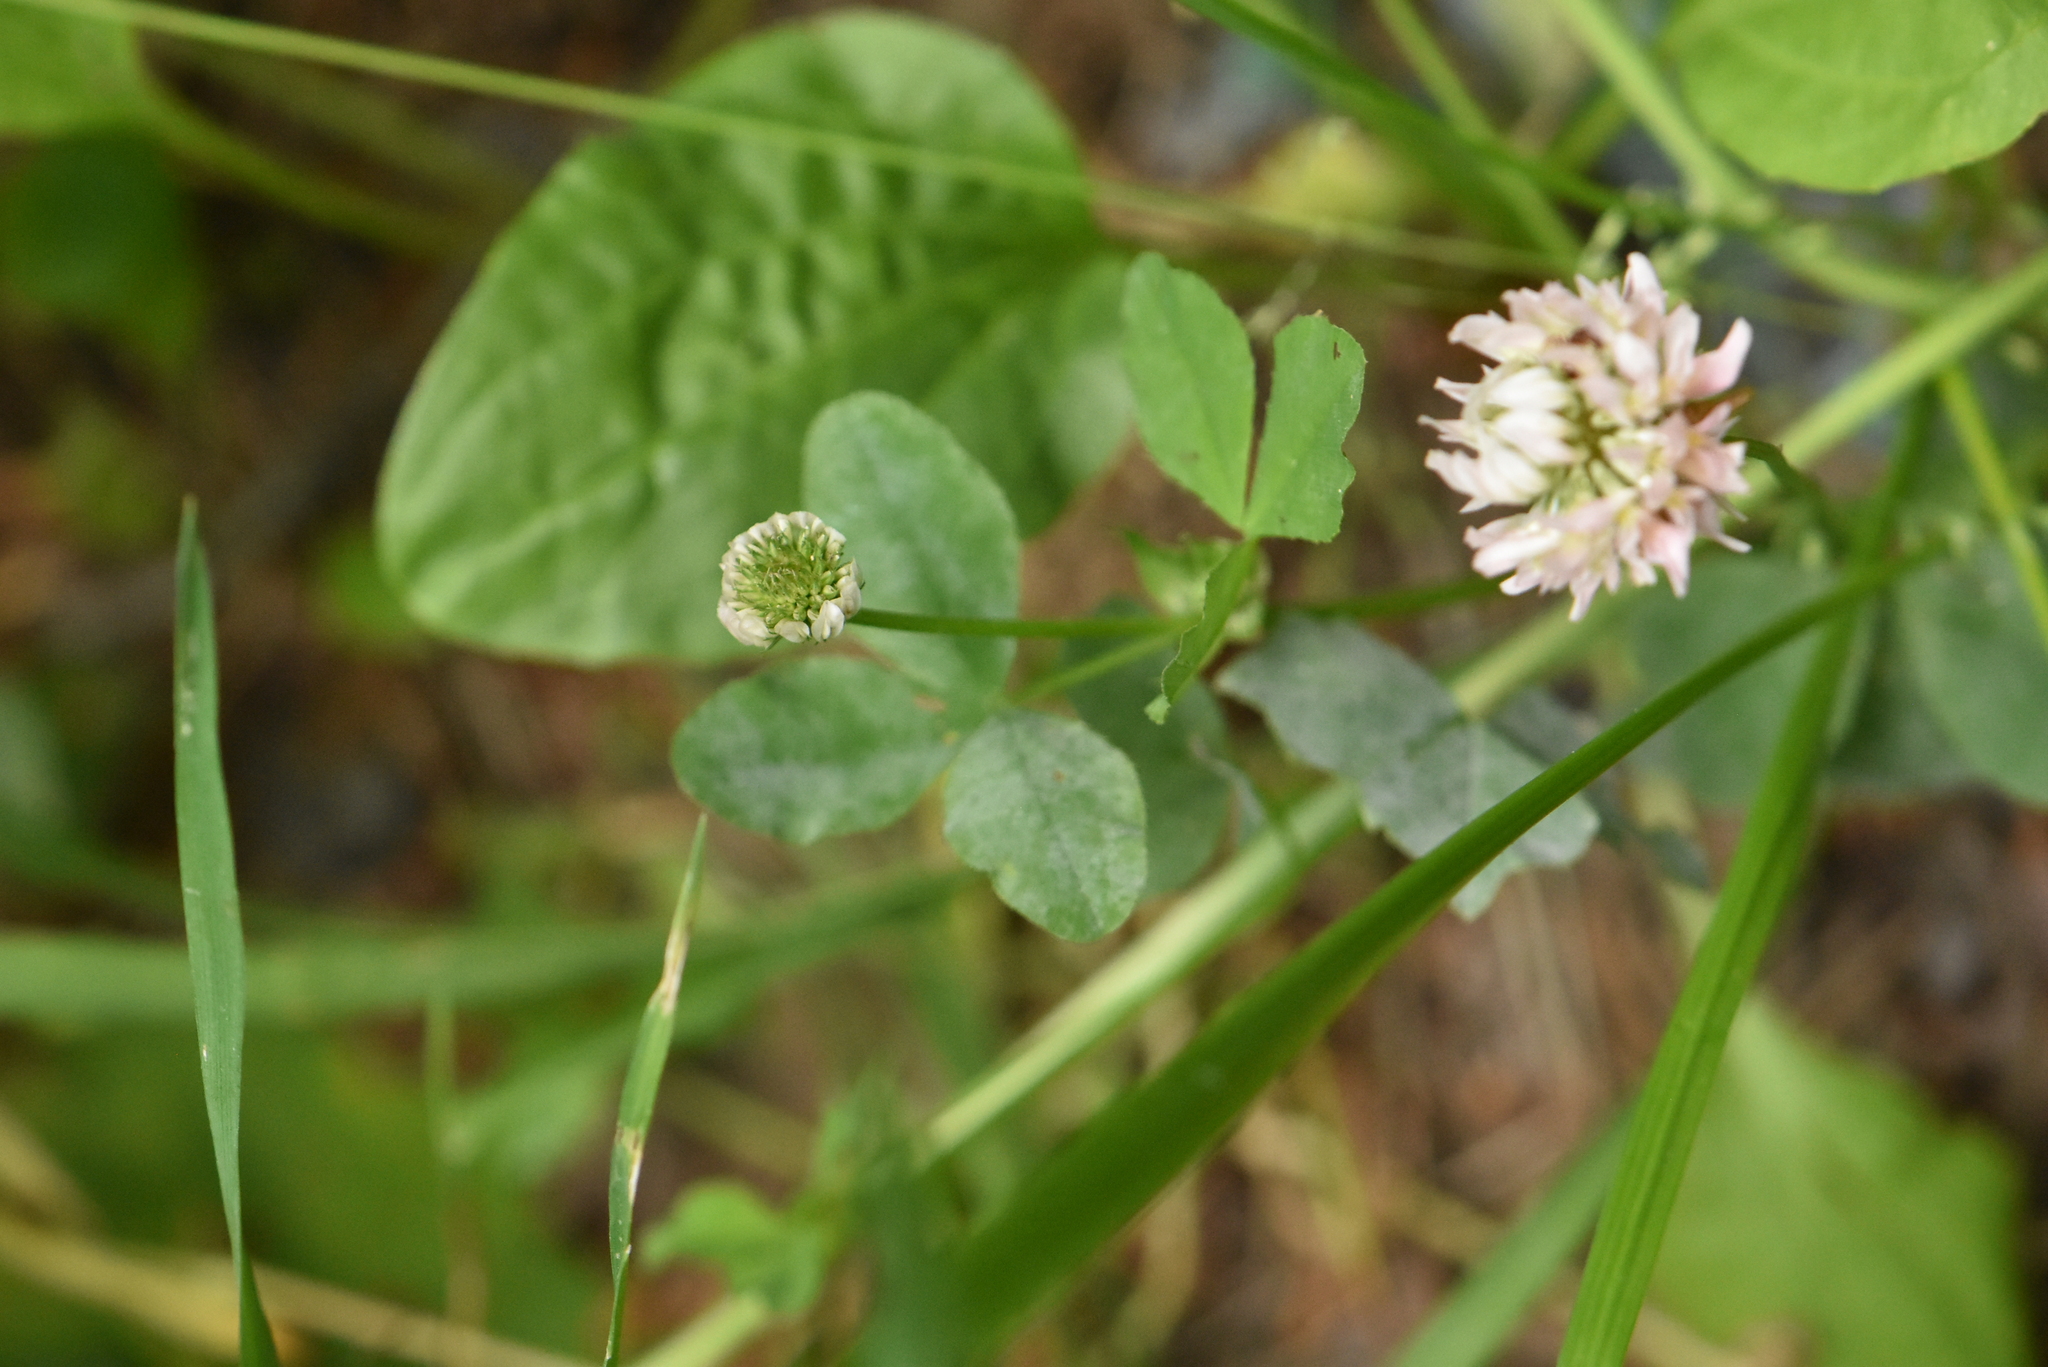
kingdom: Plantae
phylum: Tracheophyta
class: Magnoliopsida
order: Fabales
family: Fabaceae
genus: Trifolium
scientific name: Trifolium hybridum
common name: Alsike clover
